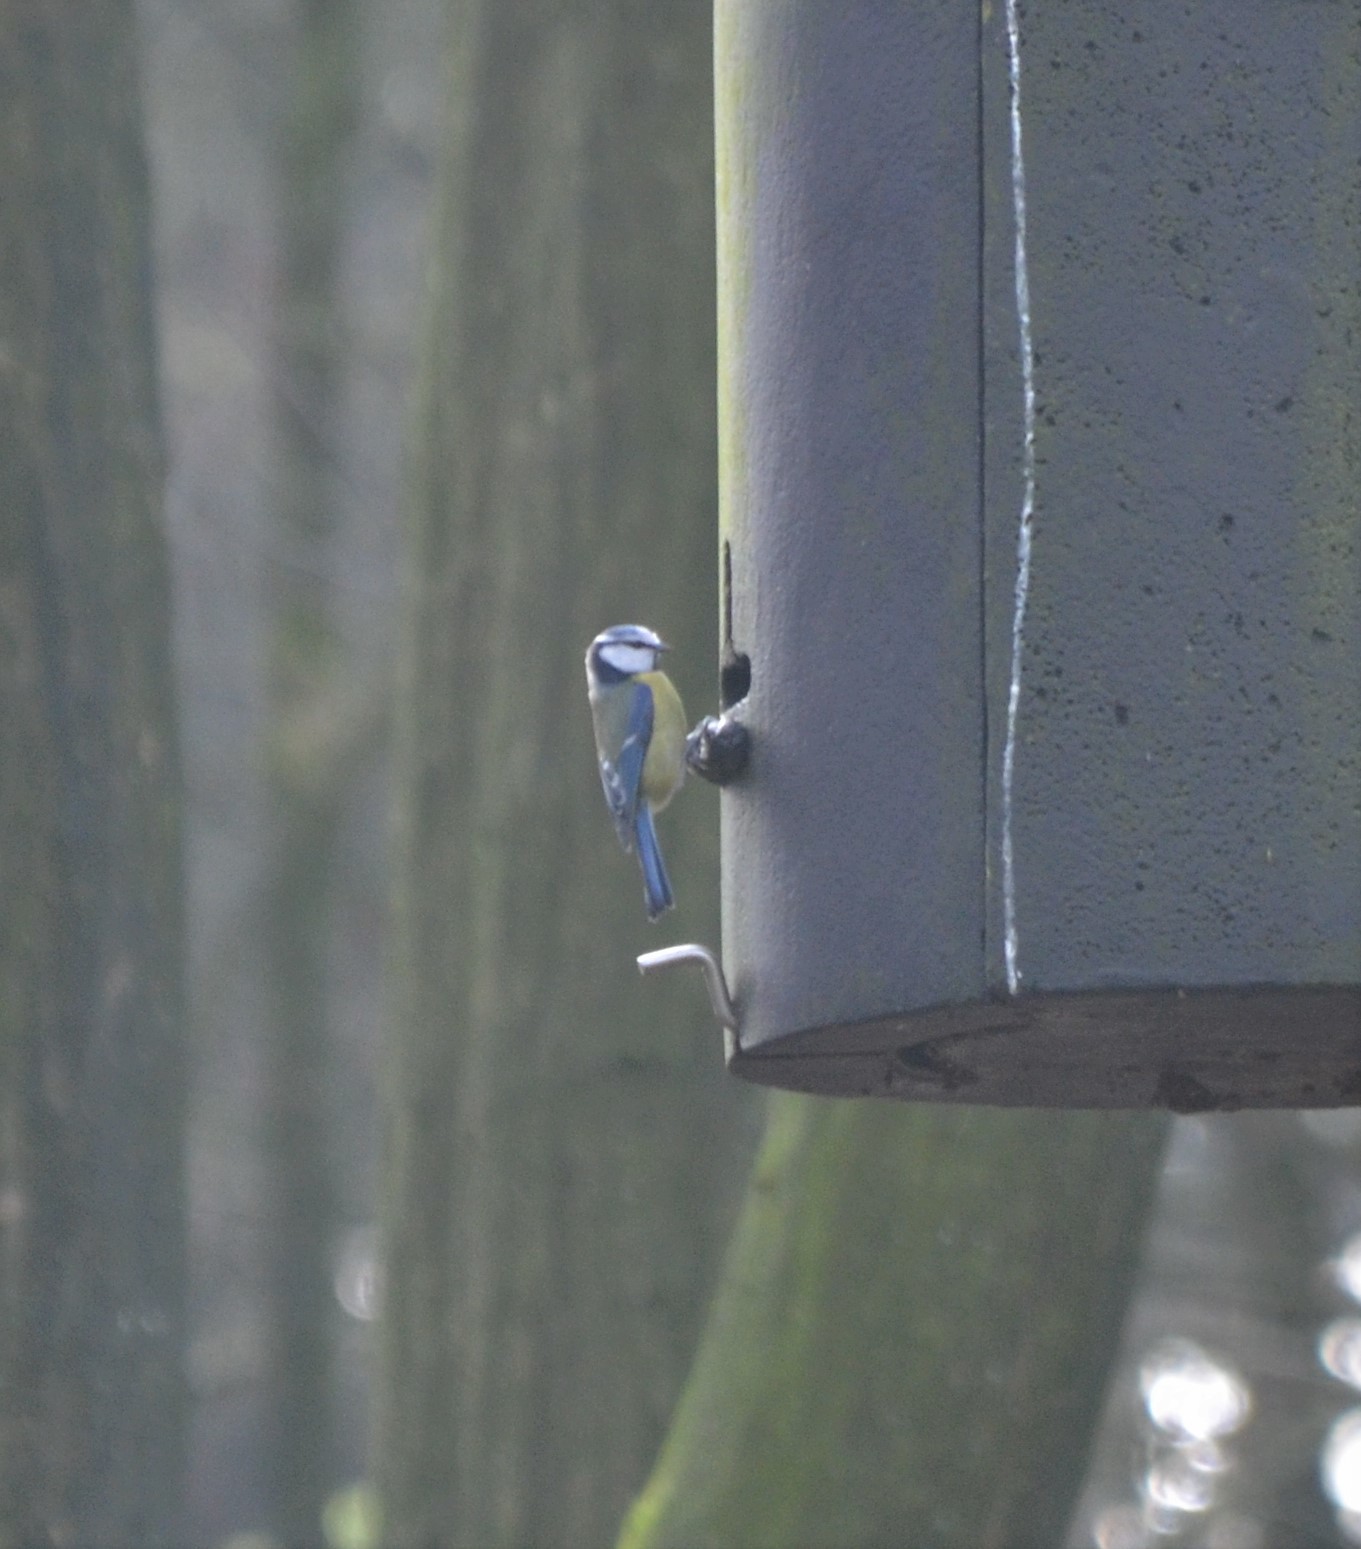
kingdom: Animalia
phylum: Chordata
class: Aves
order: Passeriformes
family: Paridae
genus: Cyanistes
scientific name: Cyanistes caeruleus
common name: Eurasian blue tit
